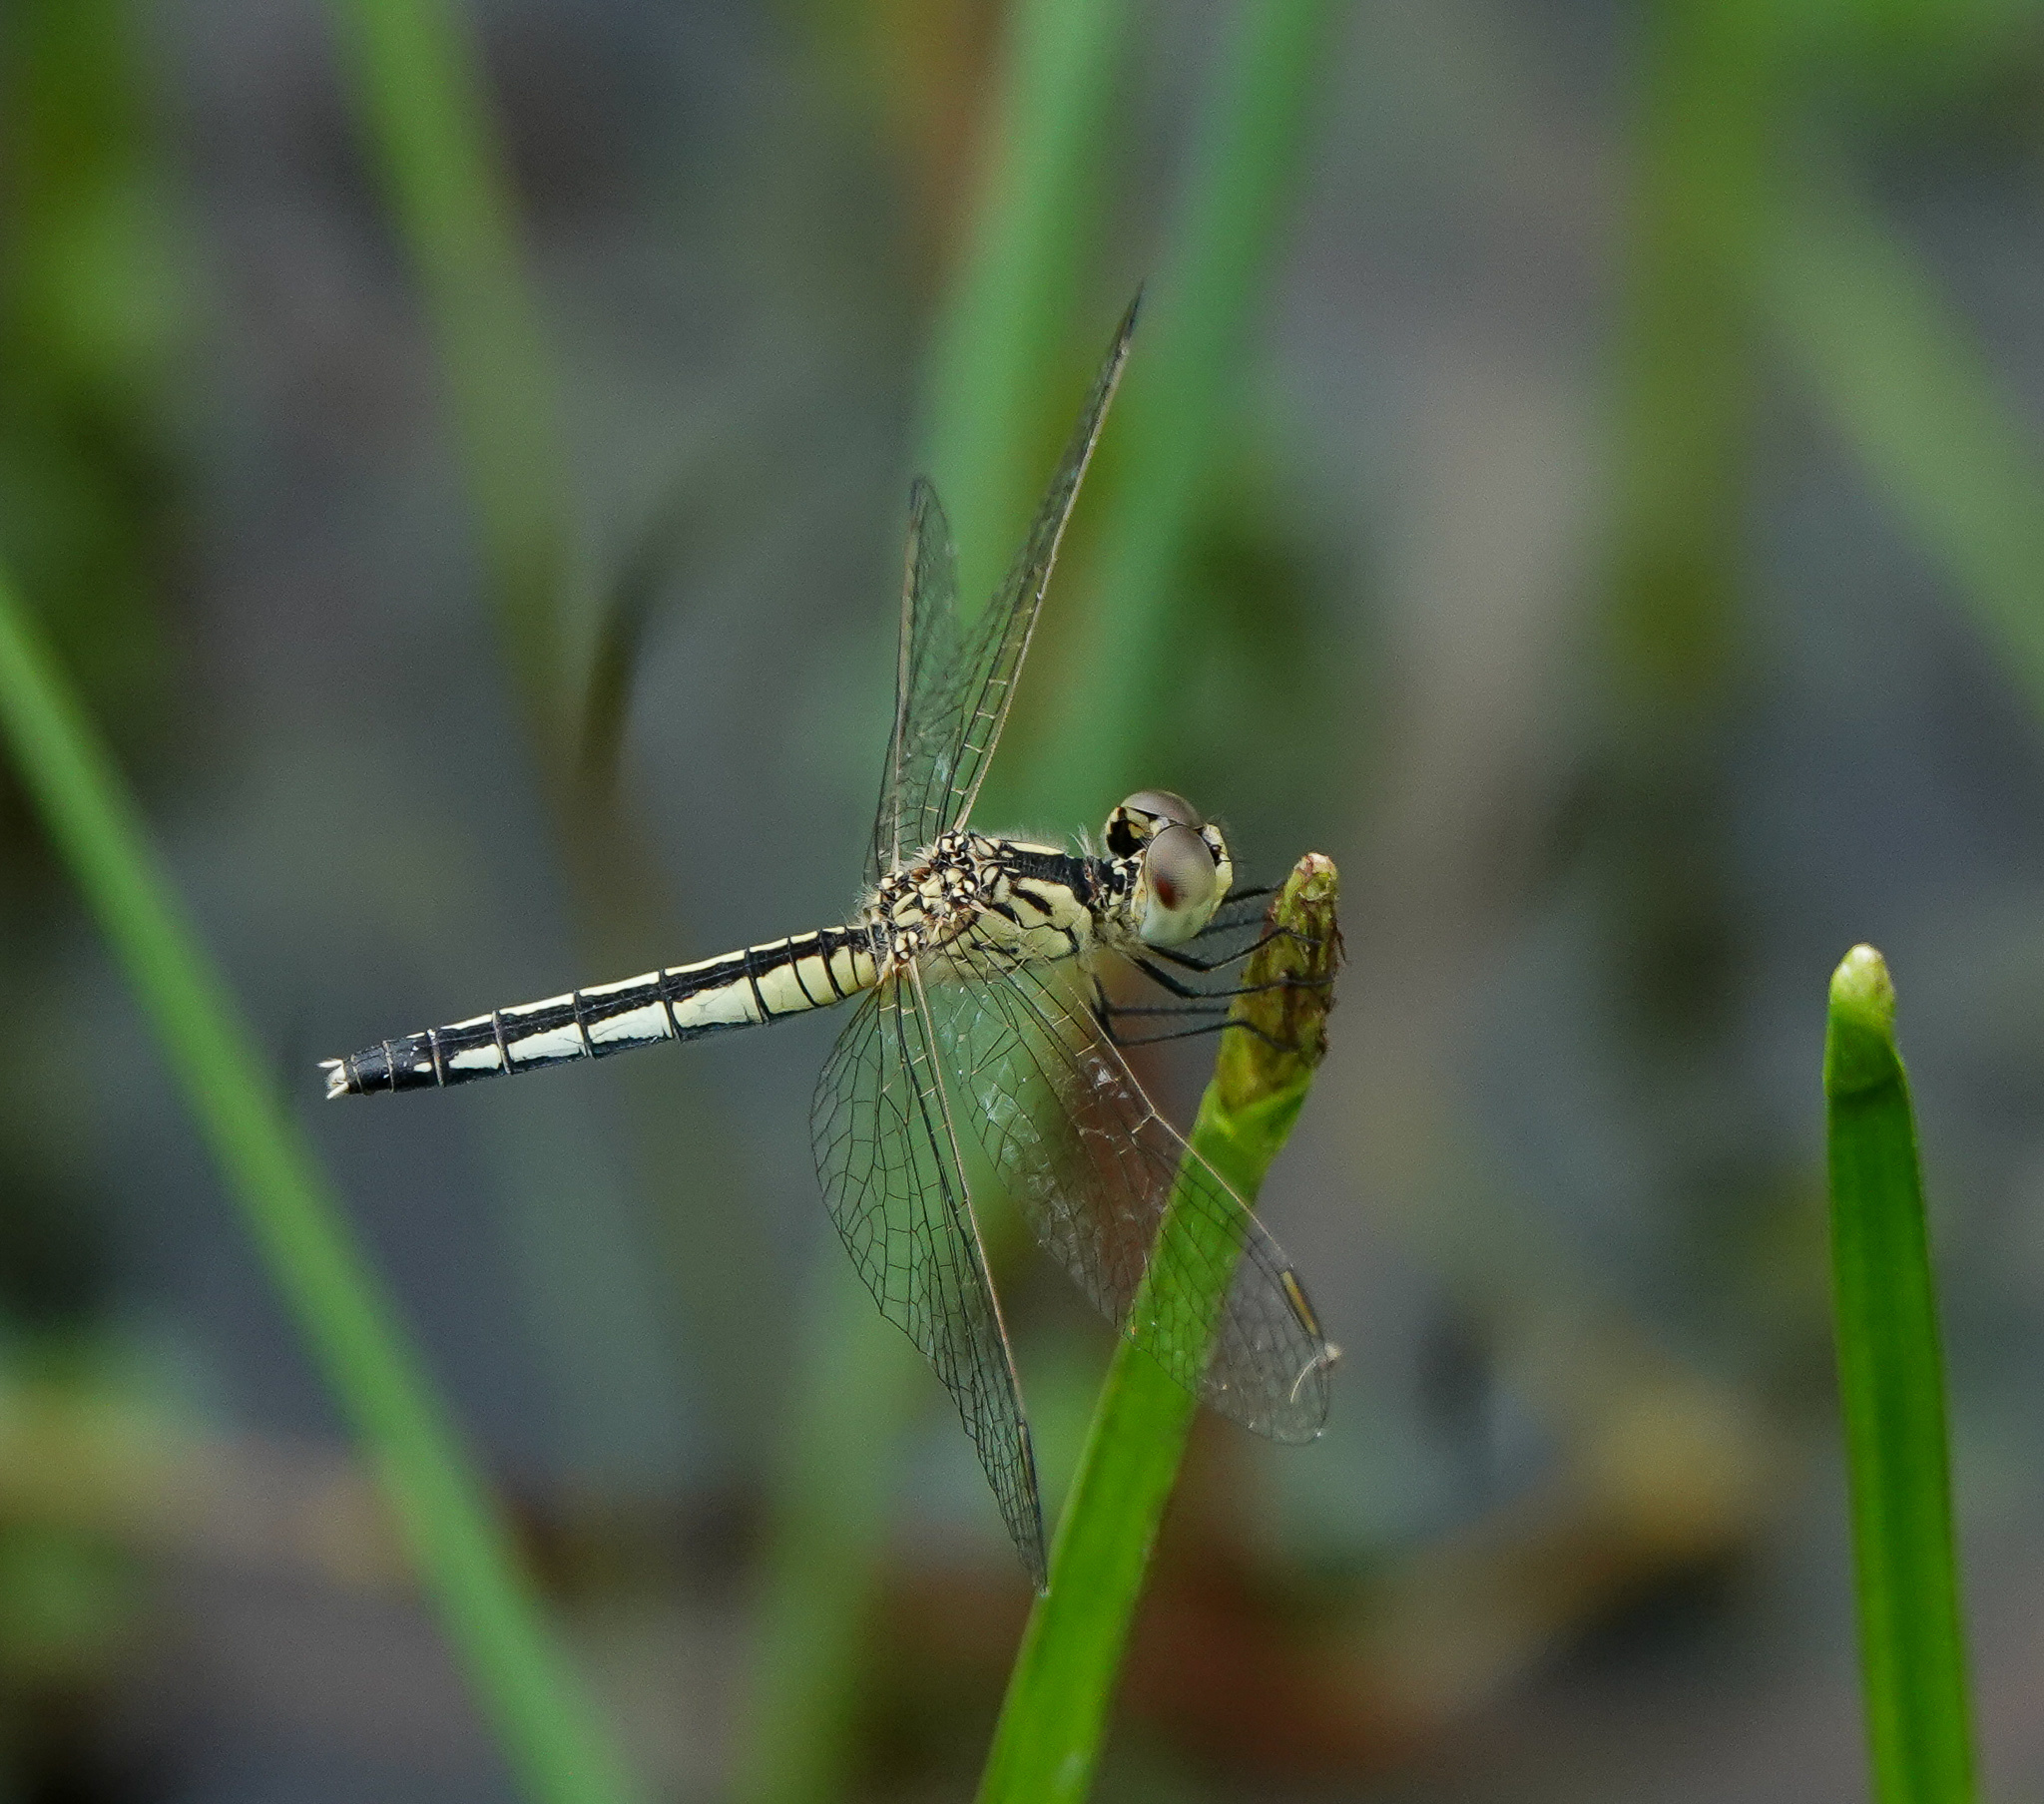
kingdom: Animalia
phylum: Arthropoda
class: Insecta
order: Odonata
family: Libellulidae
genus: Diplacodes
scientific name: Diplacodes nebulosa
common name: Black-tipped percher
